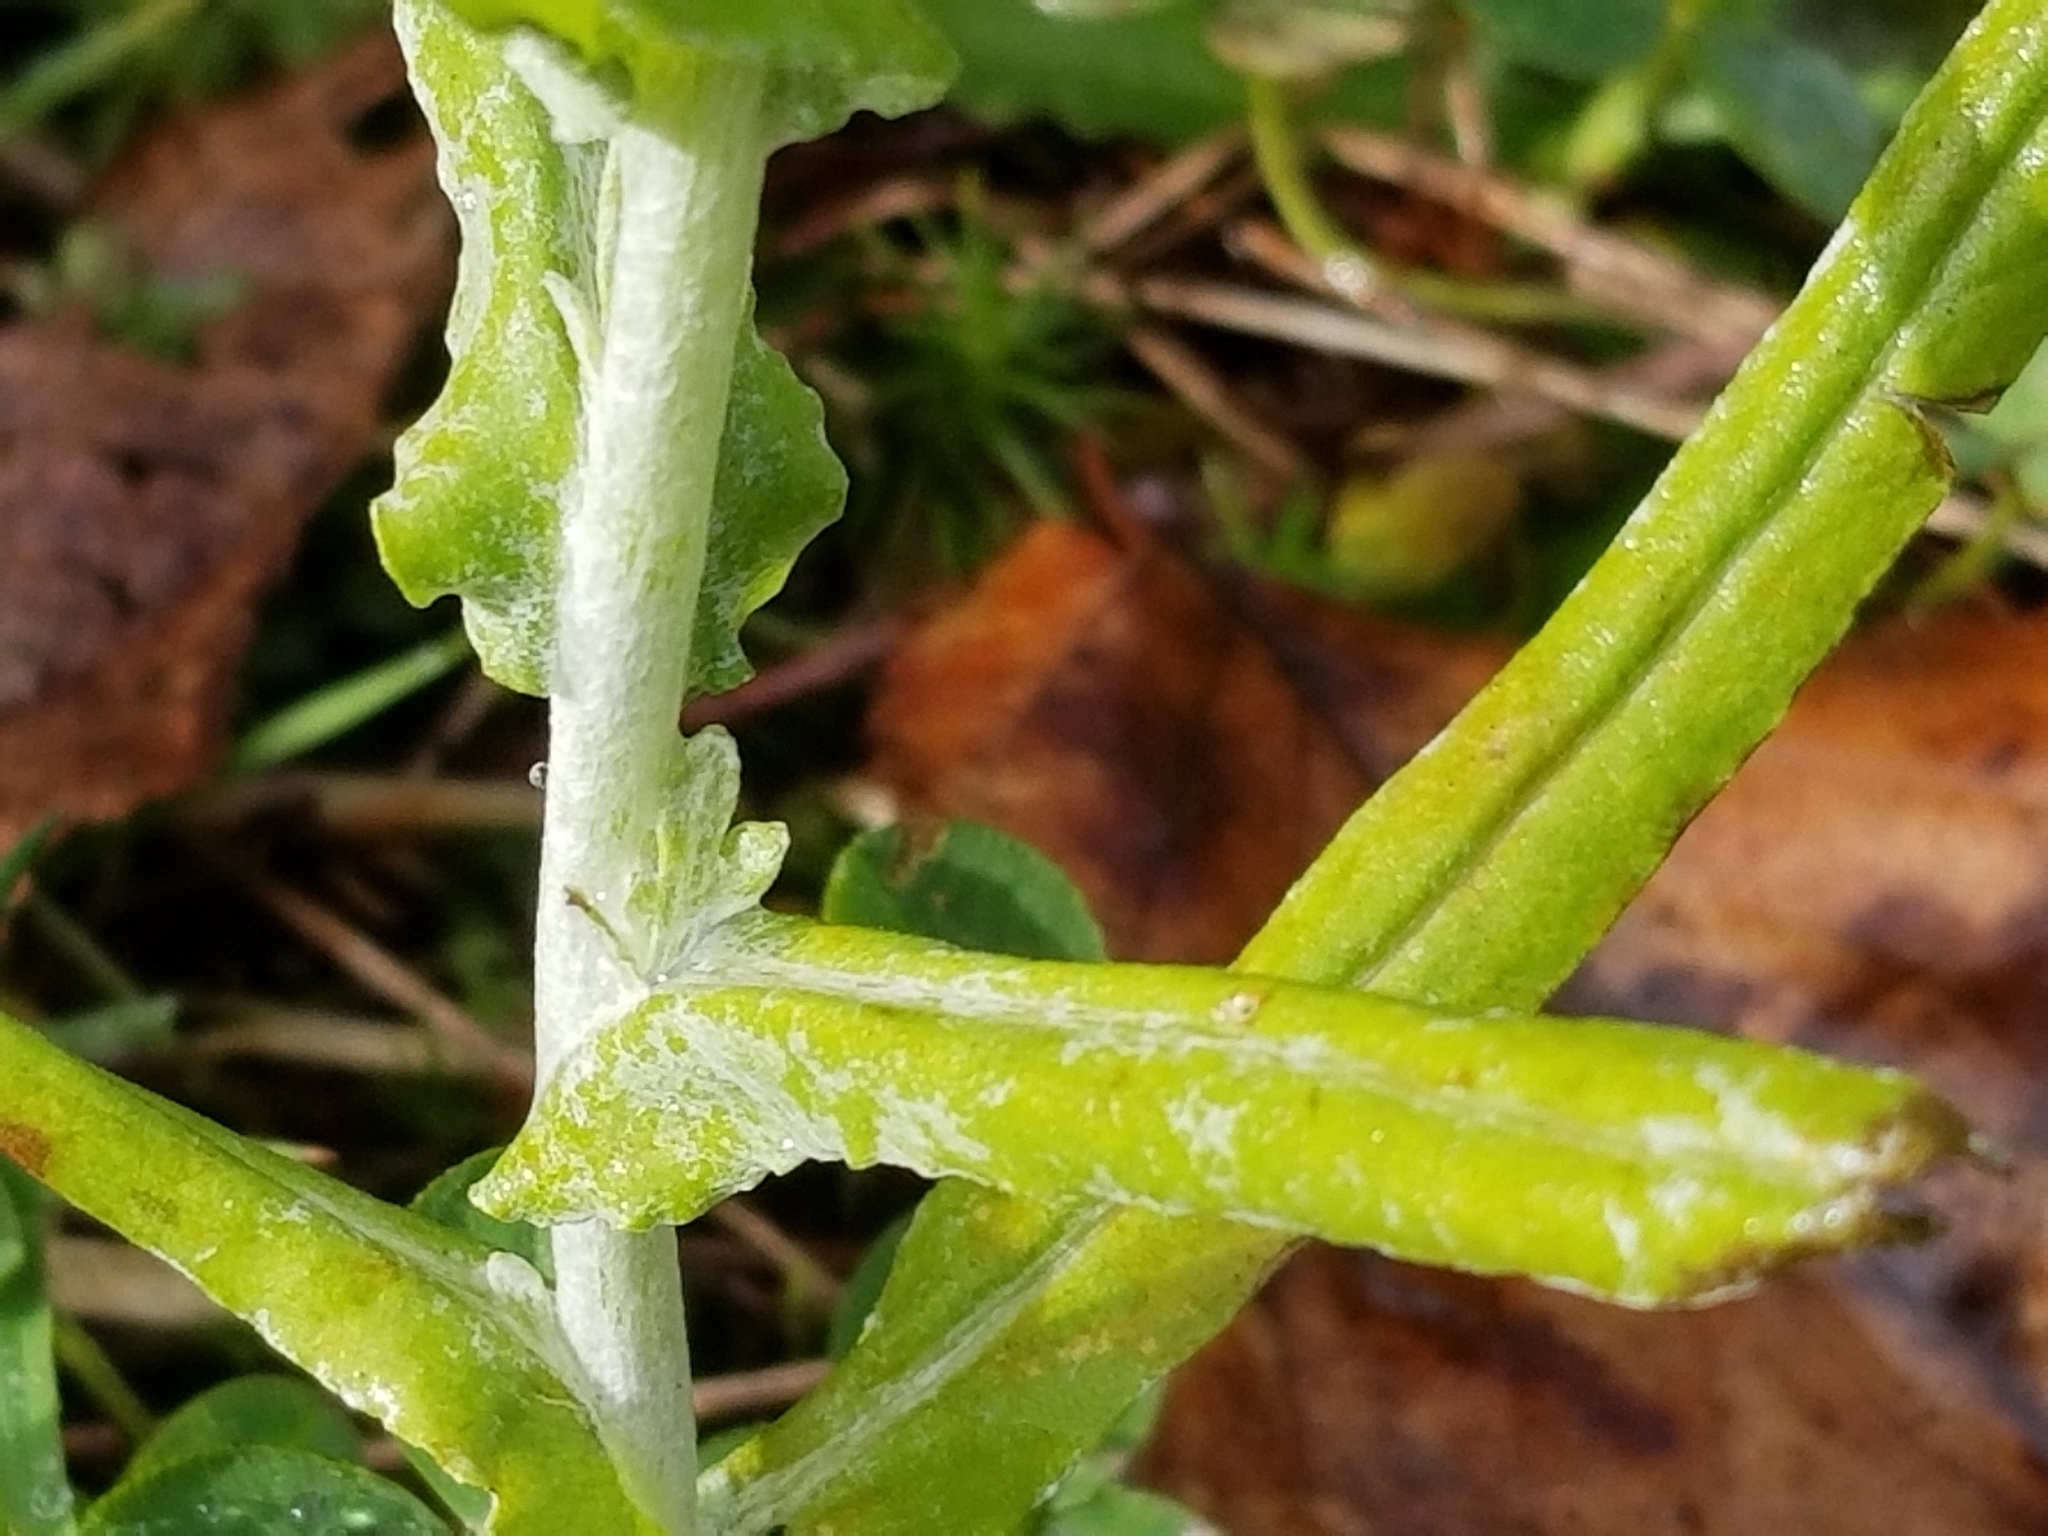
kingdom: Plantae
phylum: Tracheophyta
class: Magnoliopsida
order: Asterales
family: Asteraceae
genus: Helichrysum
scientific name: Helichrysum luteoalbum
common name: Daisy
